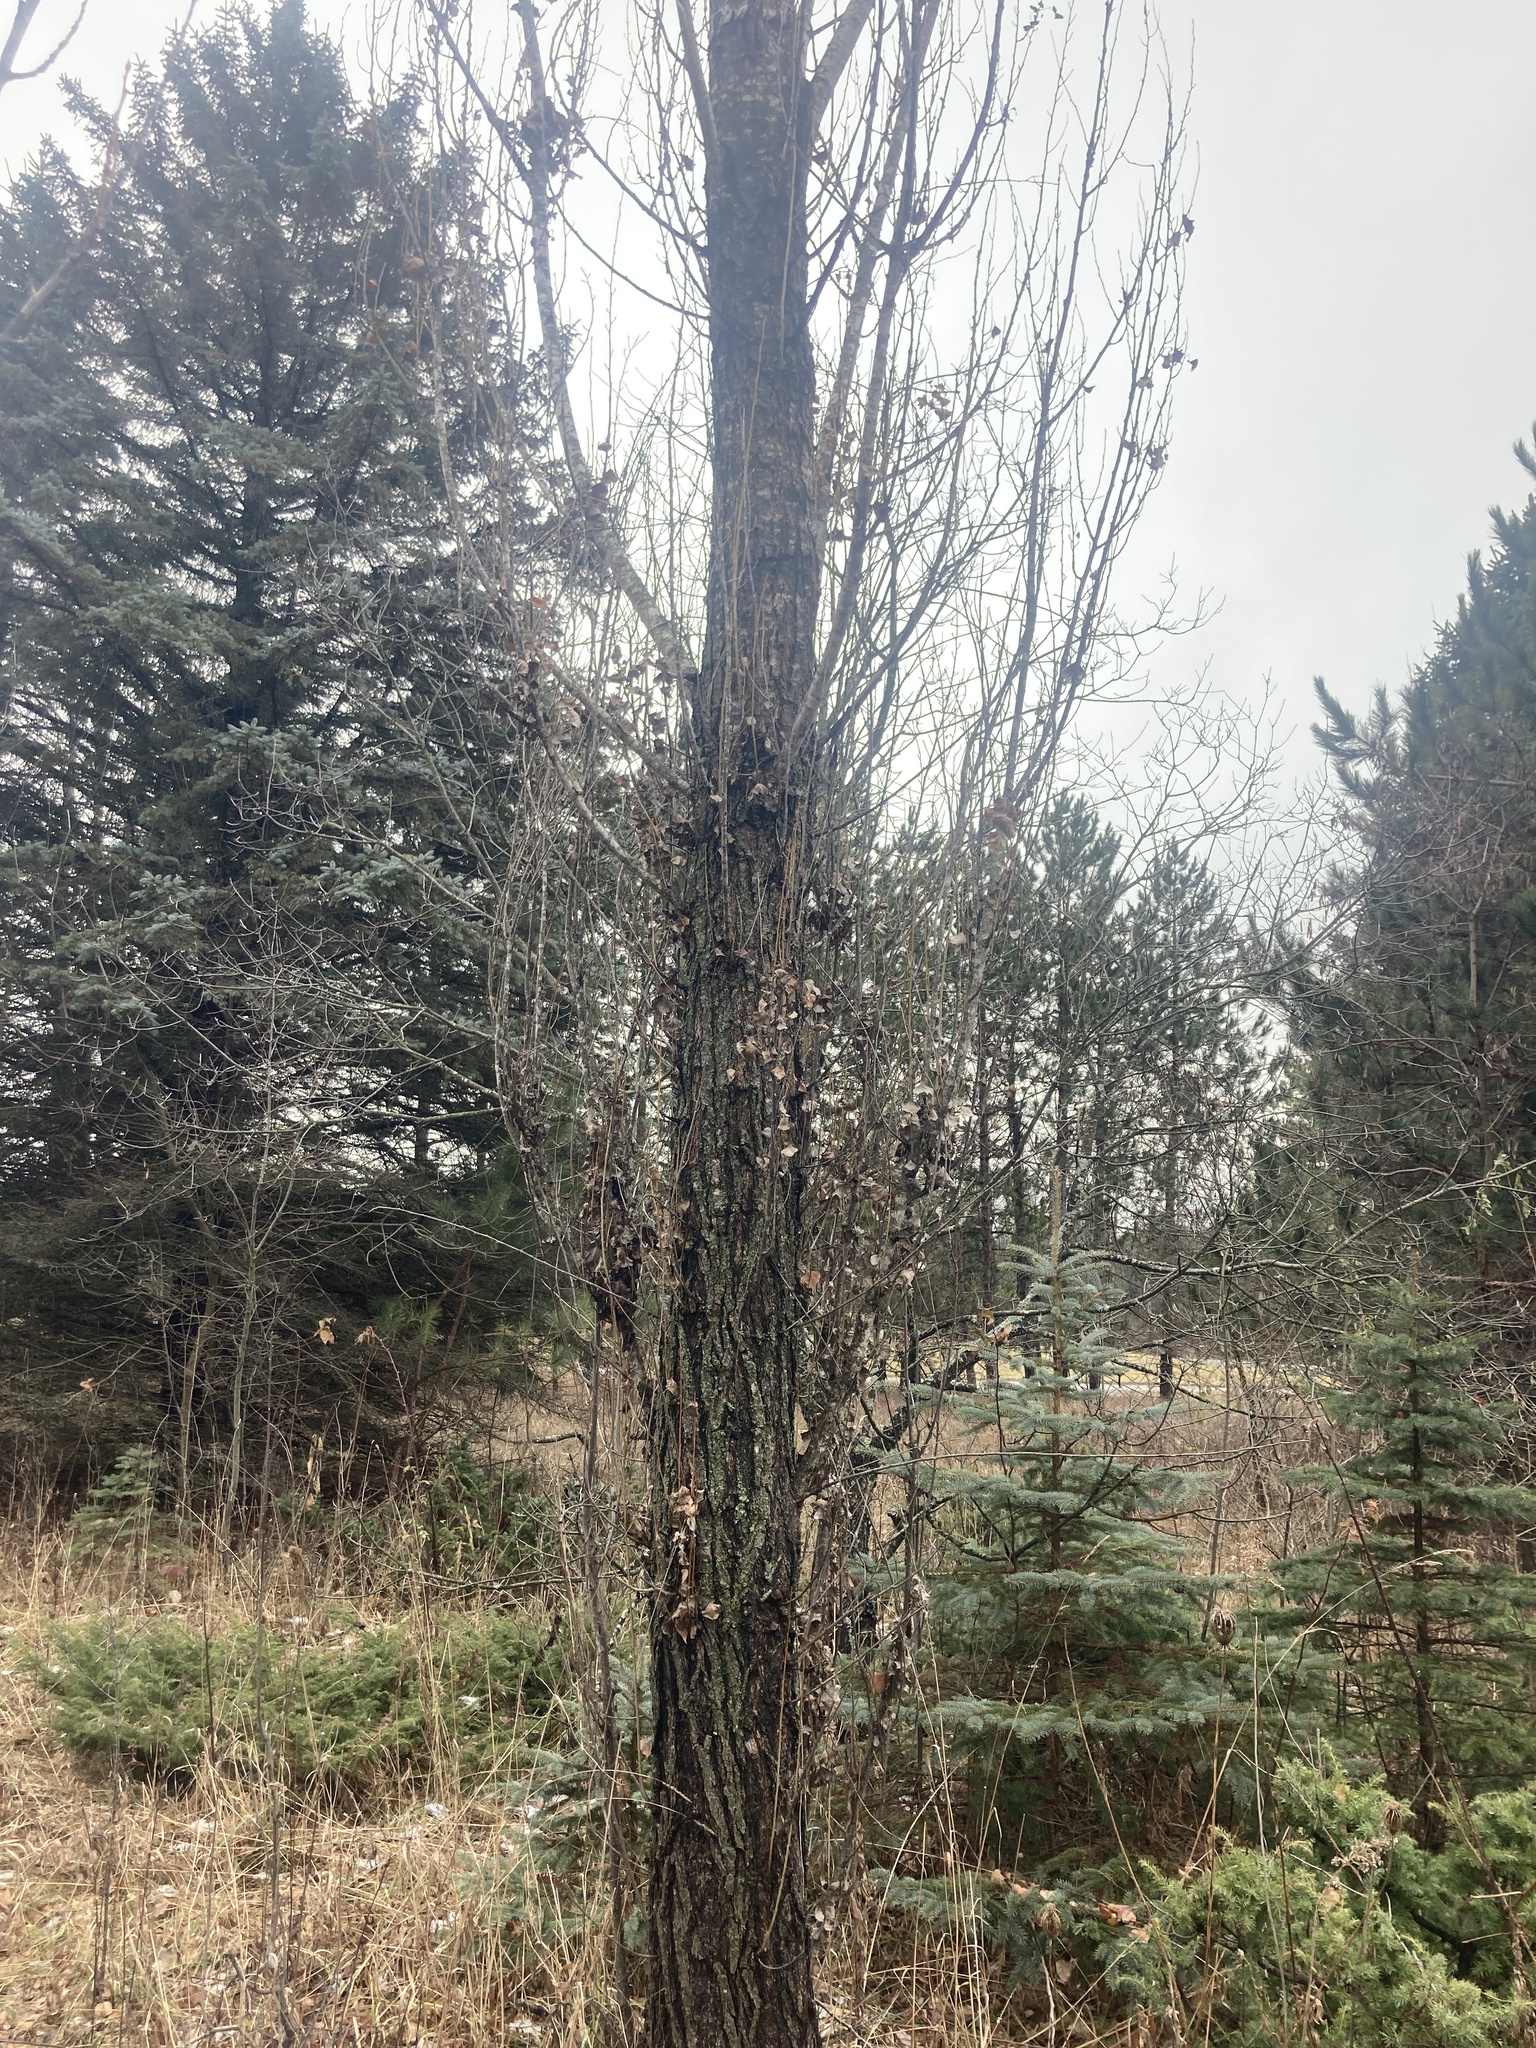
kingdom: Plantae
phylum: Tracheophyta
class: Magnoliopsida
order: Malpighiales
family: Salicaceae
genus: Populus
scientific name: Populus nigra
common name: Black poplar
